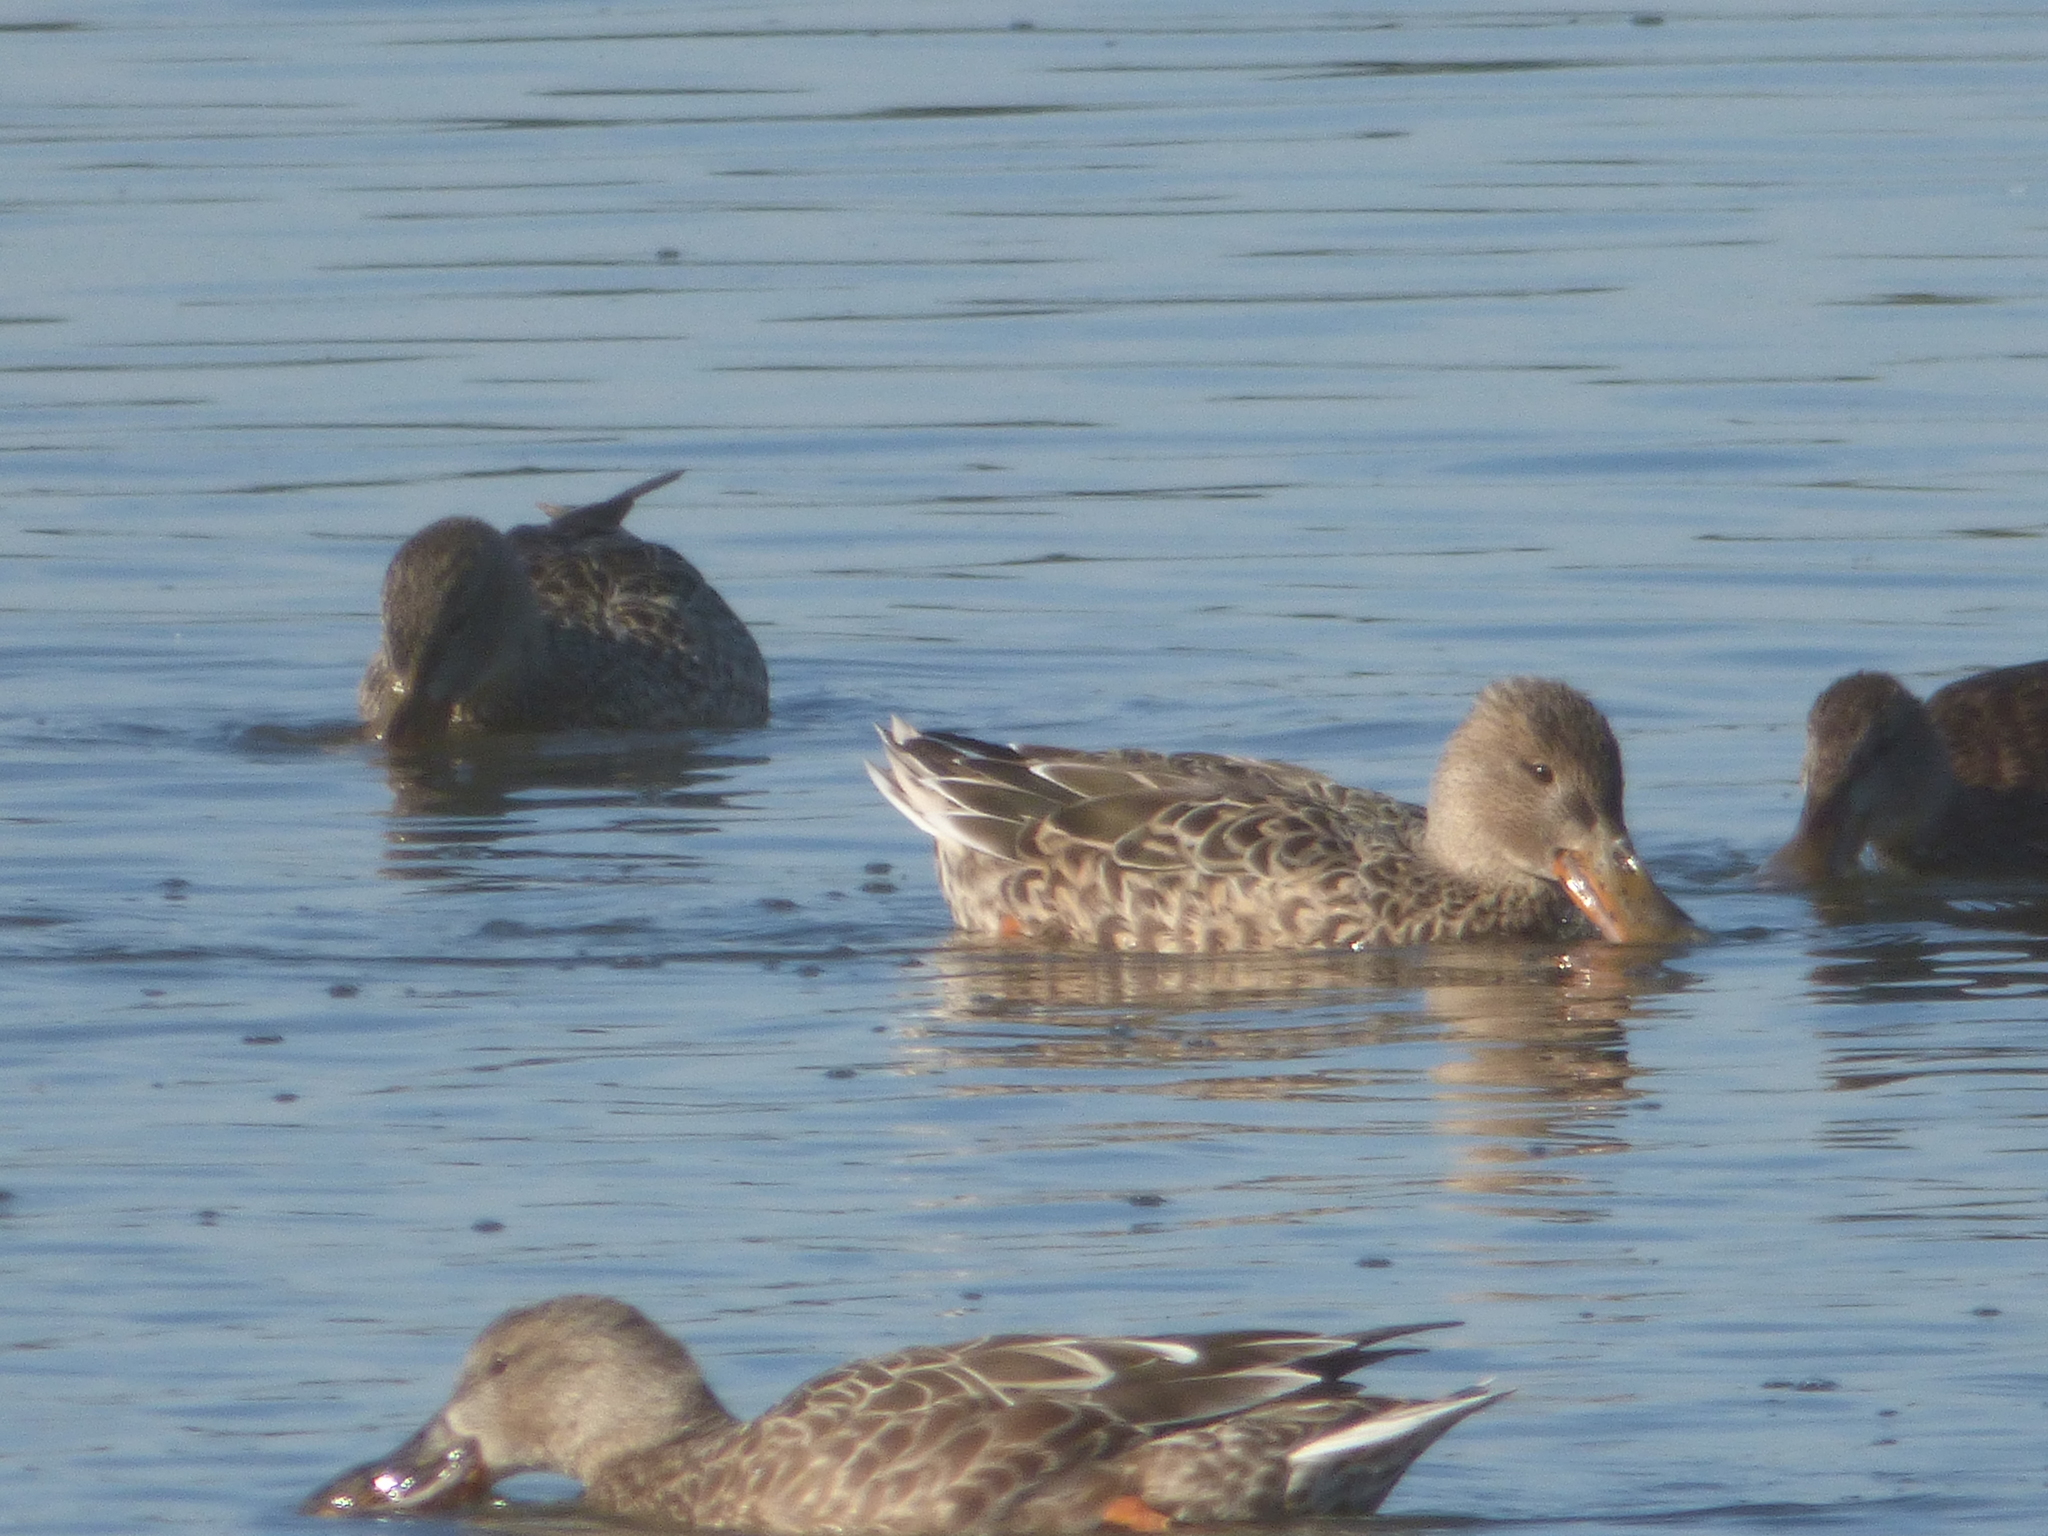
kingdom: Animalia
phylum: Chordata
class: Aves
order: Anseriformes
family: Anatidae
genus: Spatula
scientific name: Spatula clypeata
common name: Northern shoveler
